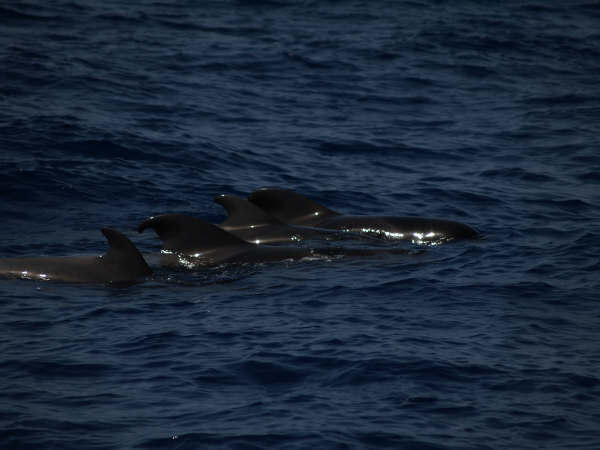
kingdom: Animalia
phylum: Chordata
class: Mammalia
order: Cetacea
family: Delphinidae
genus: Globicephala
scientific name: Globicephala macrorhynchus
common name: Short-finned pilot whale
